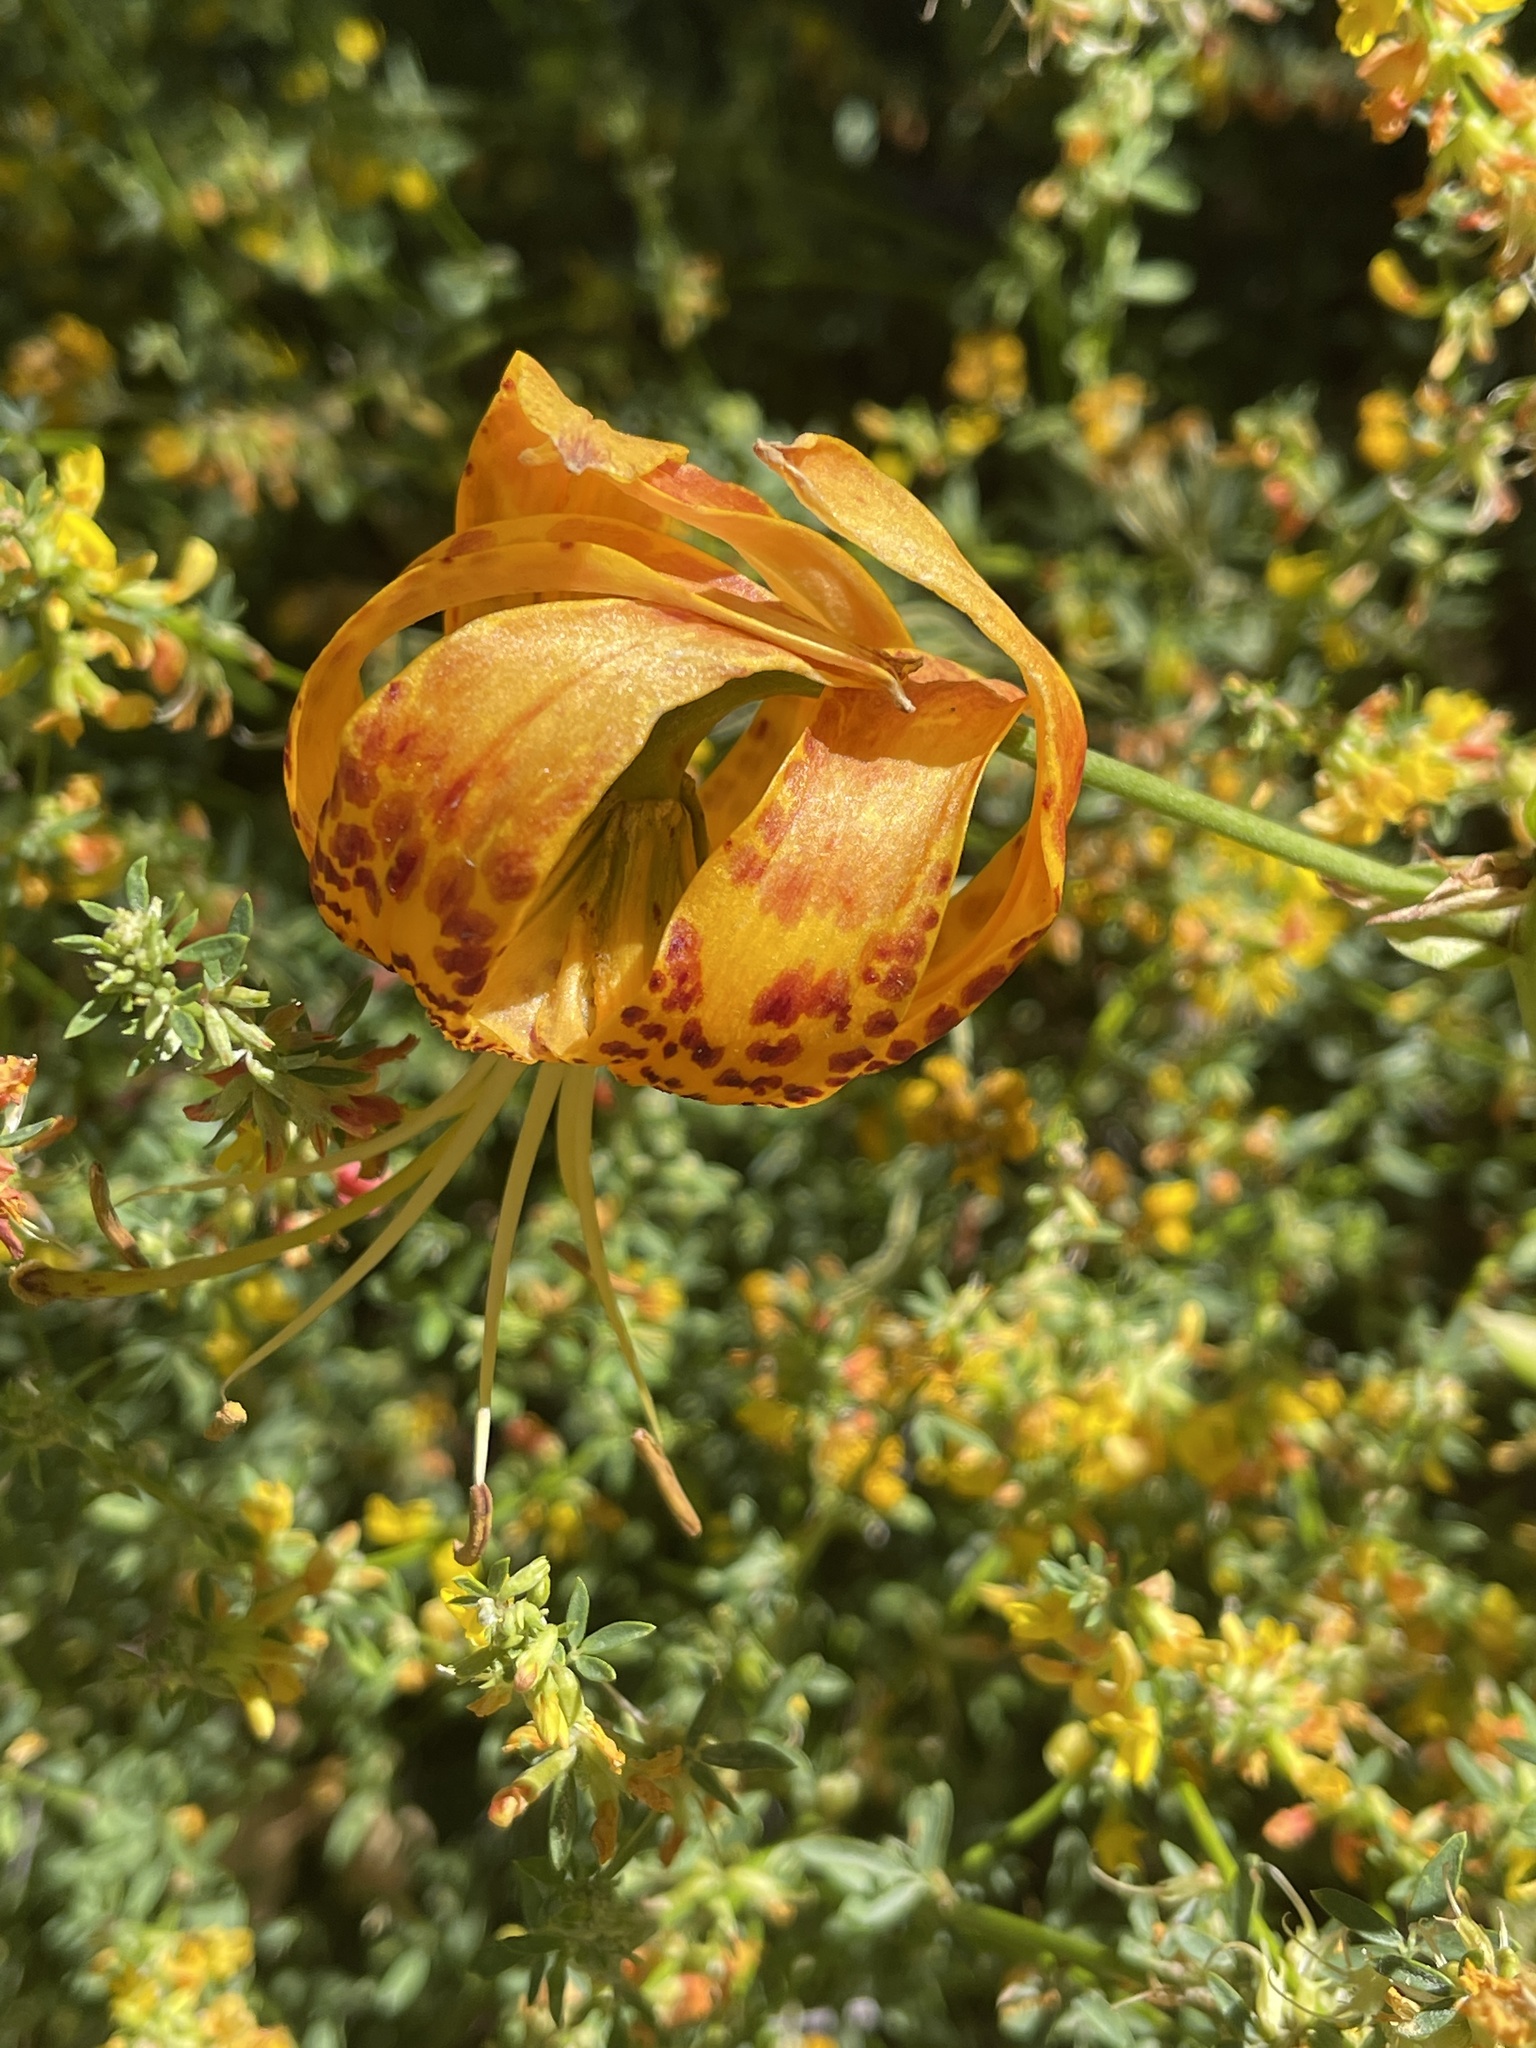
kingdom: Plantae
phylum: Tracheophyta
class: Liliopsida
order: Liliales
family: Liliaceae
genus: Lilium
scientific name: Lilium humboldtii
